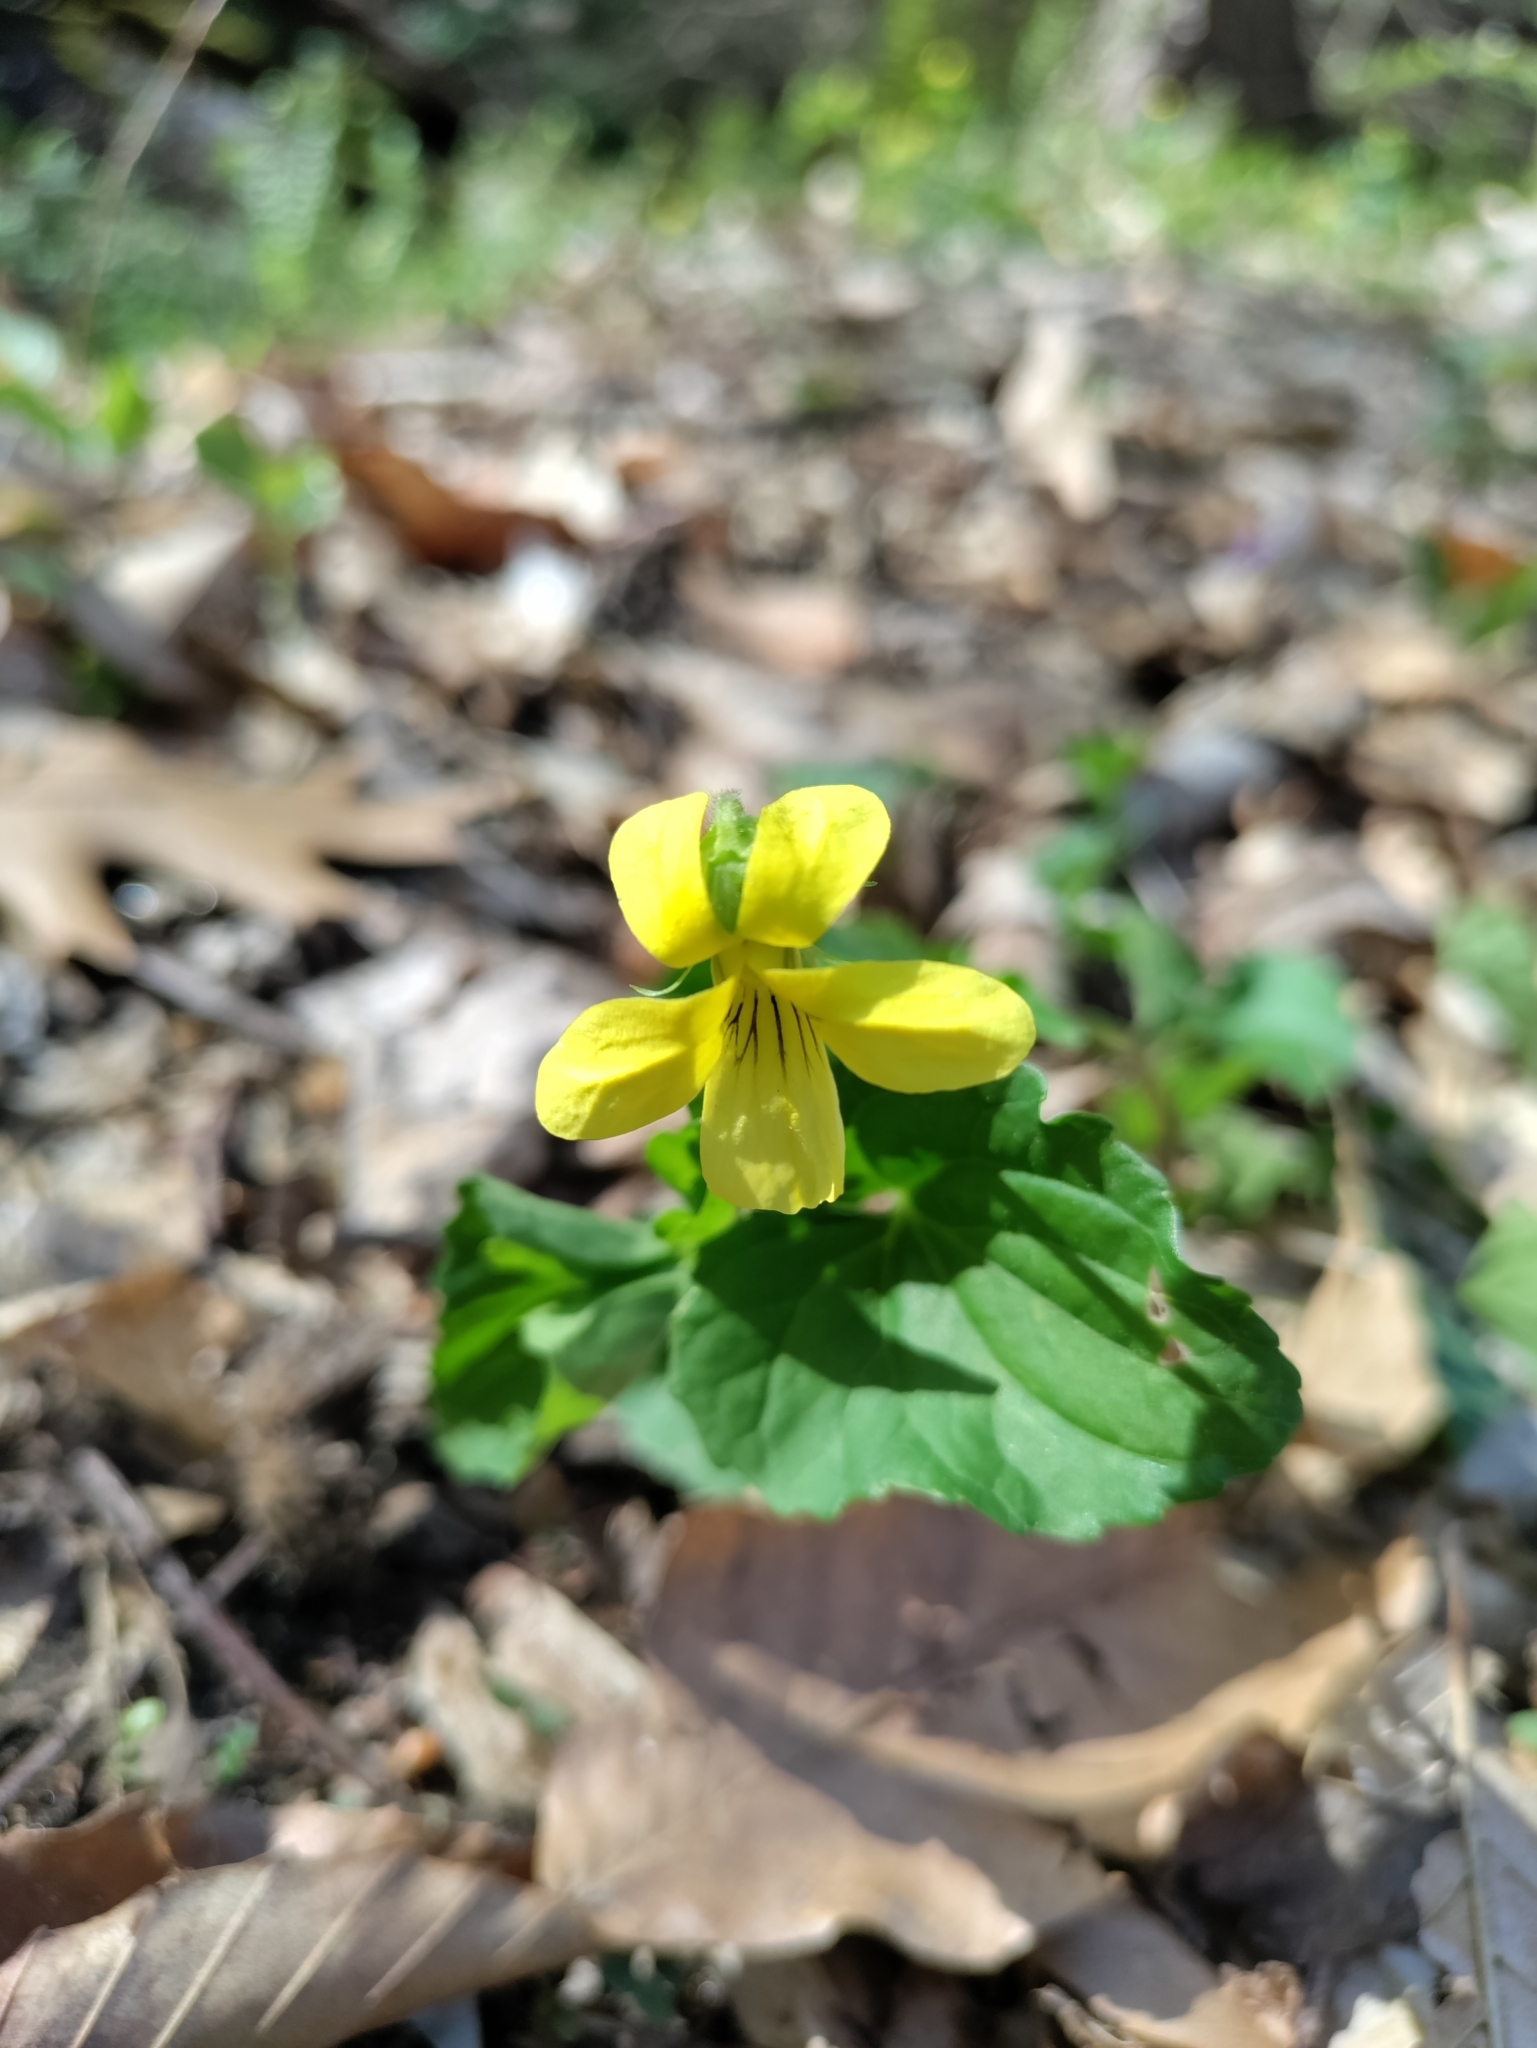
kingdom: Plantae
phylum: Tracheophyta
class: Magnoliopsida
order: Malpighiales
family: Violaceae
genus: Viola
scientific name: Viola eriocarpa
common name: Smooth yellow violet
